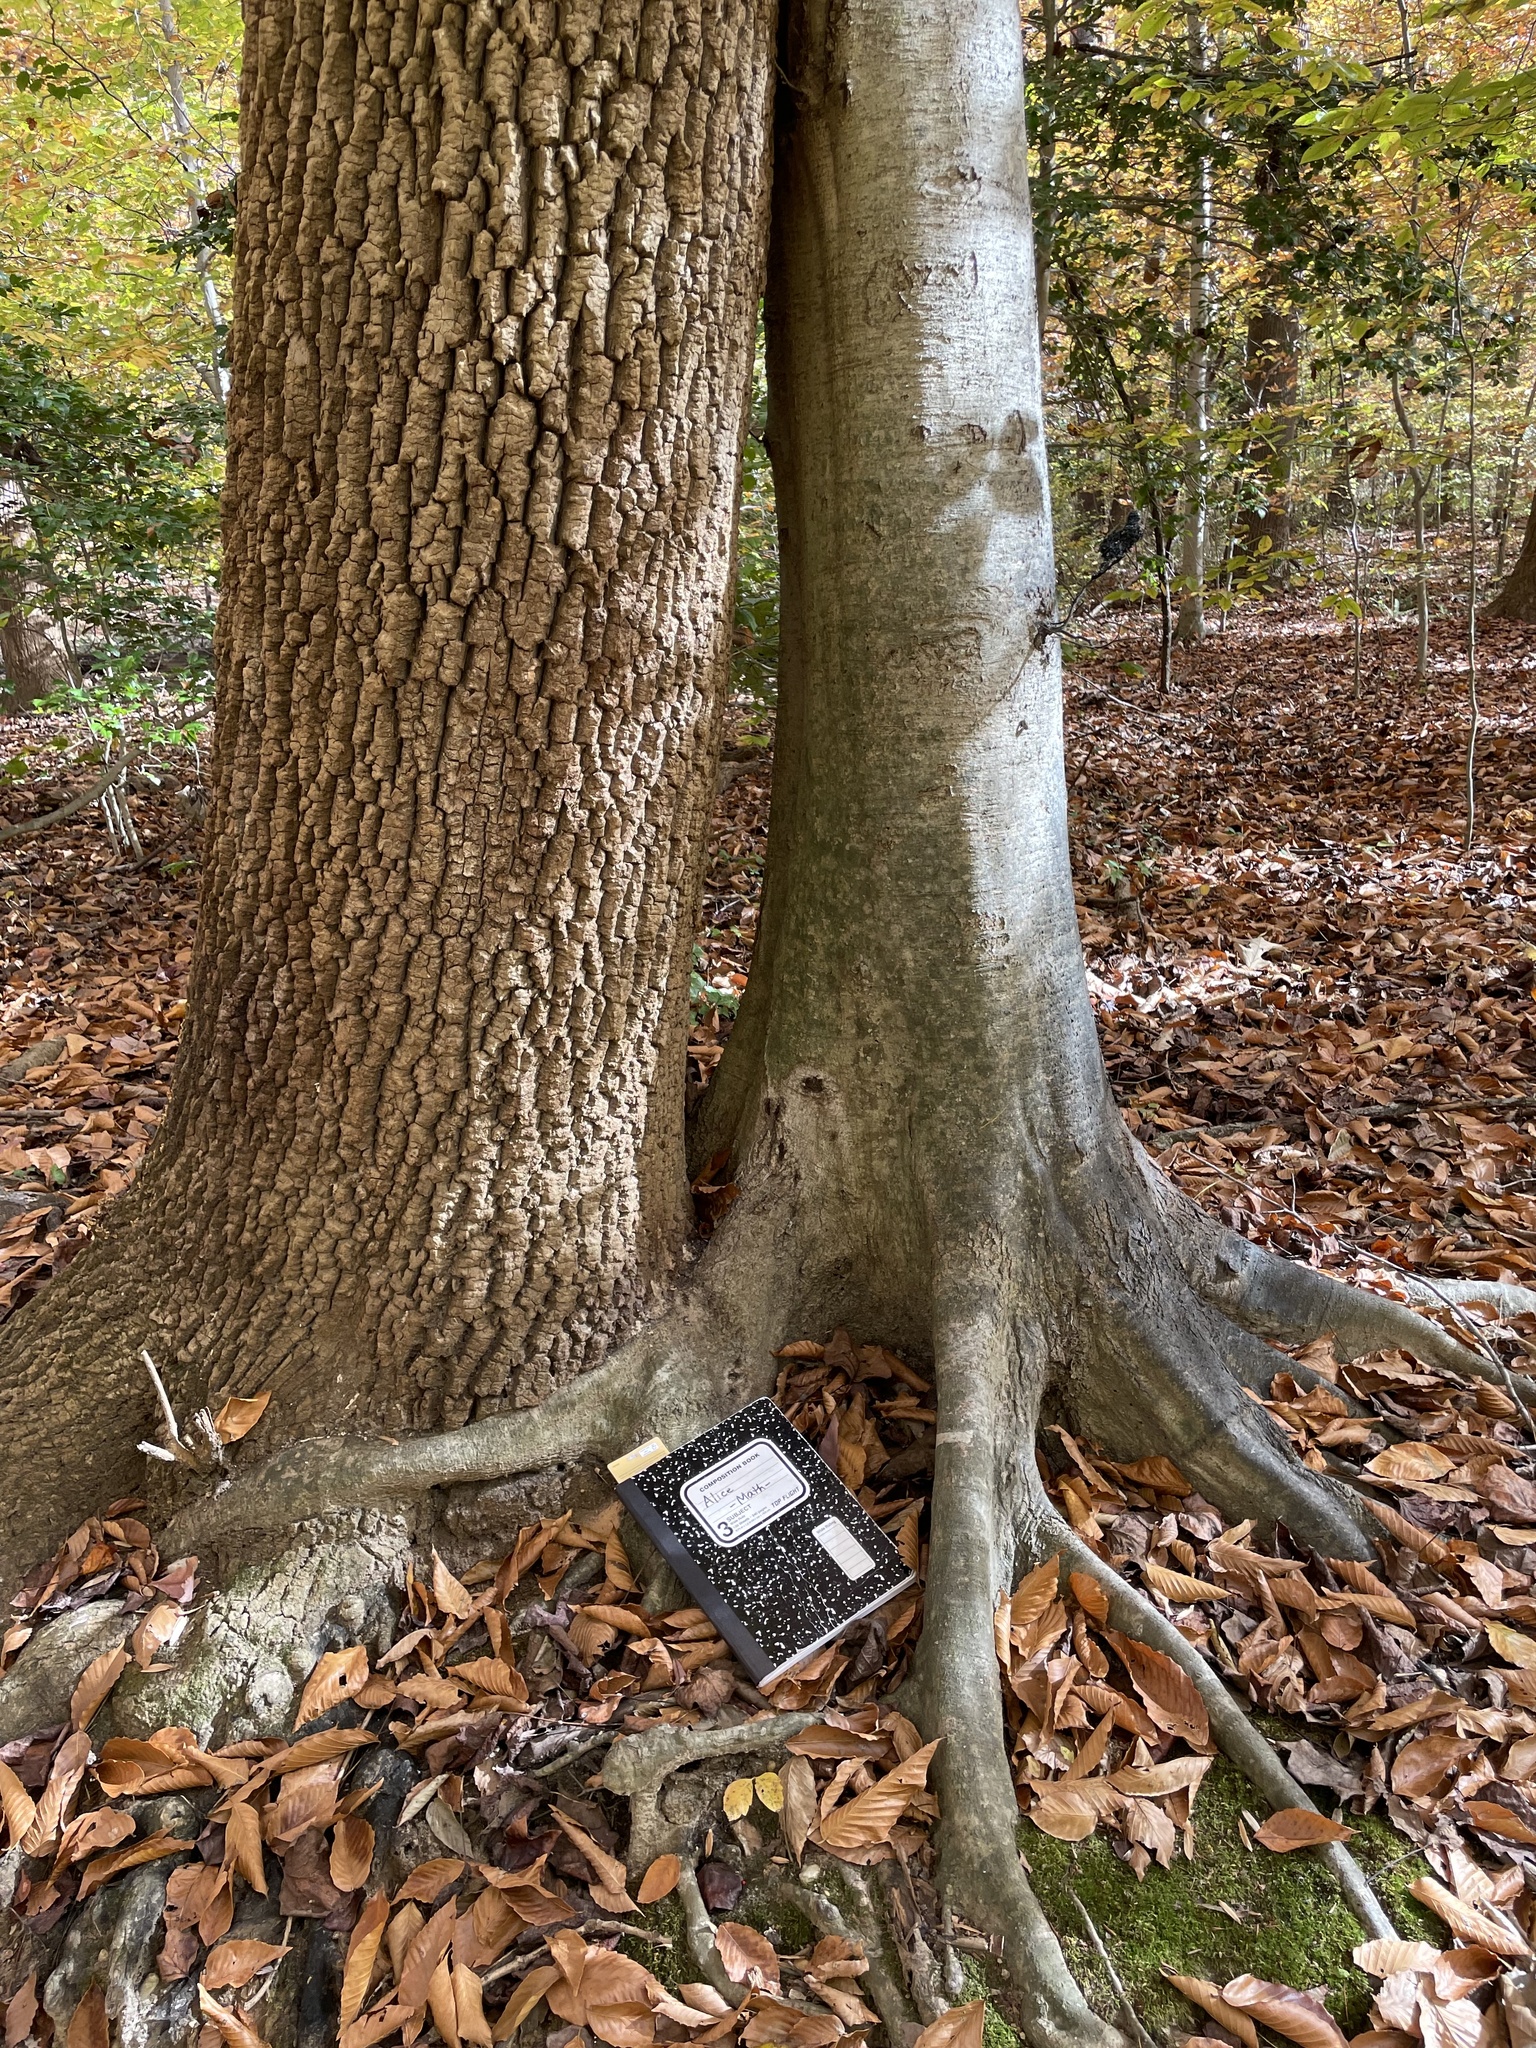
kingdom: Plantae
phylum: Tracheophyta
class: Magnoliopsida
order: Fagales
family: Fagaceae
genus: Fagus
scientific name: Fagus grandifolia
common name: American beech
